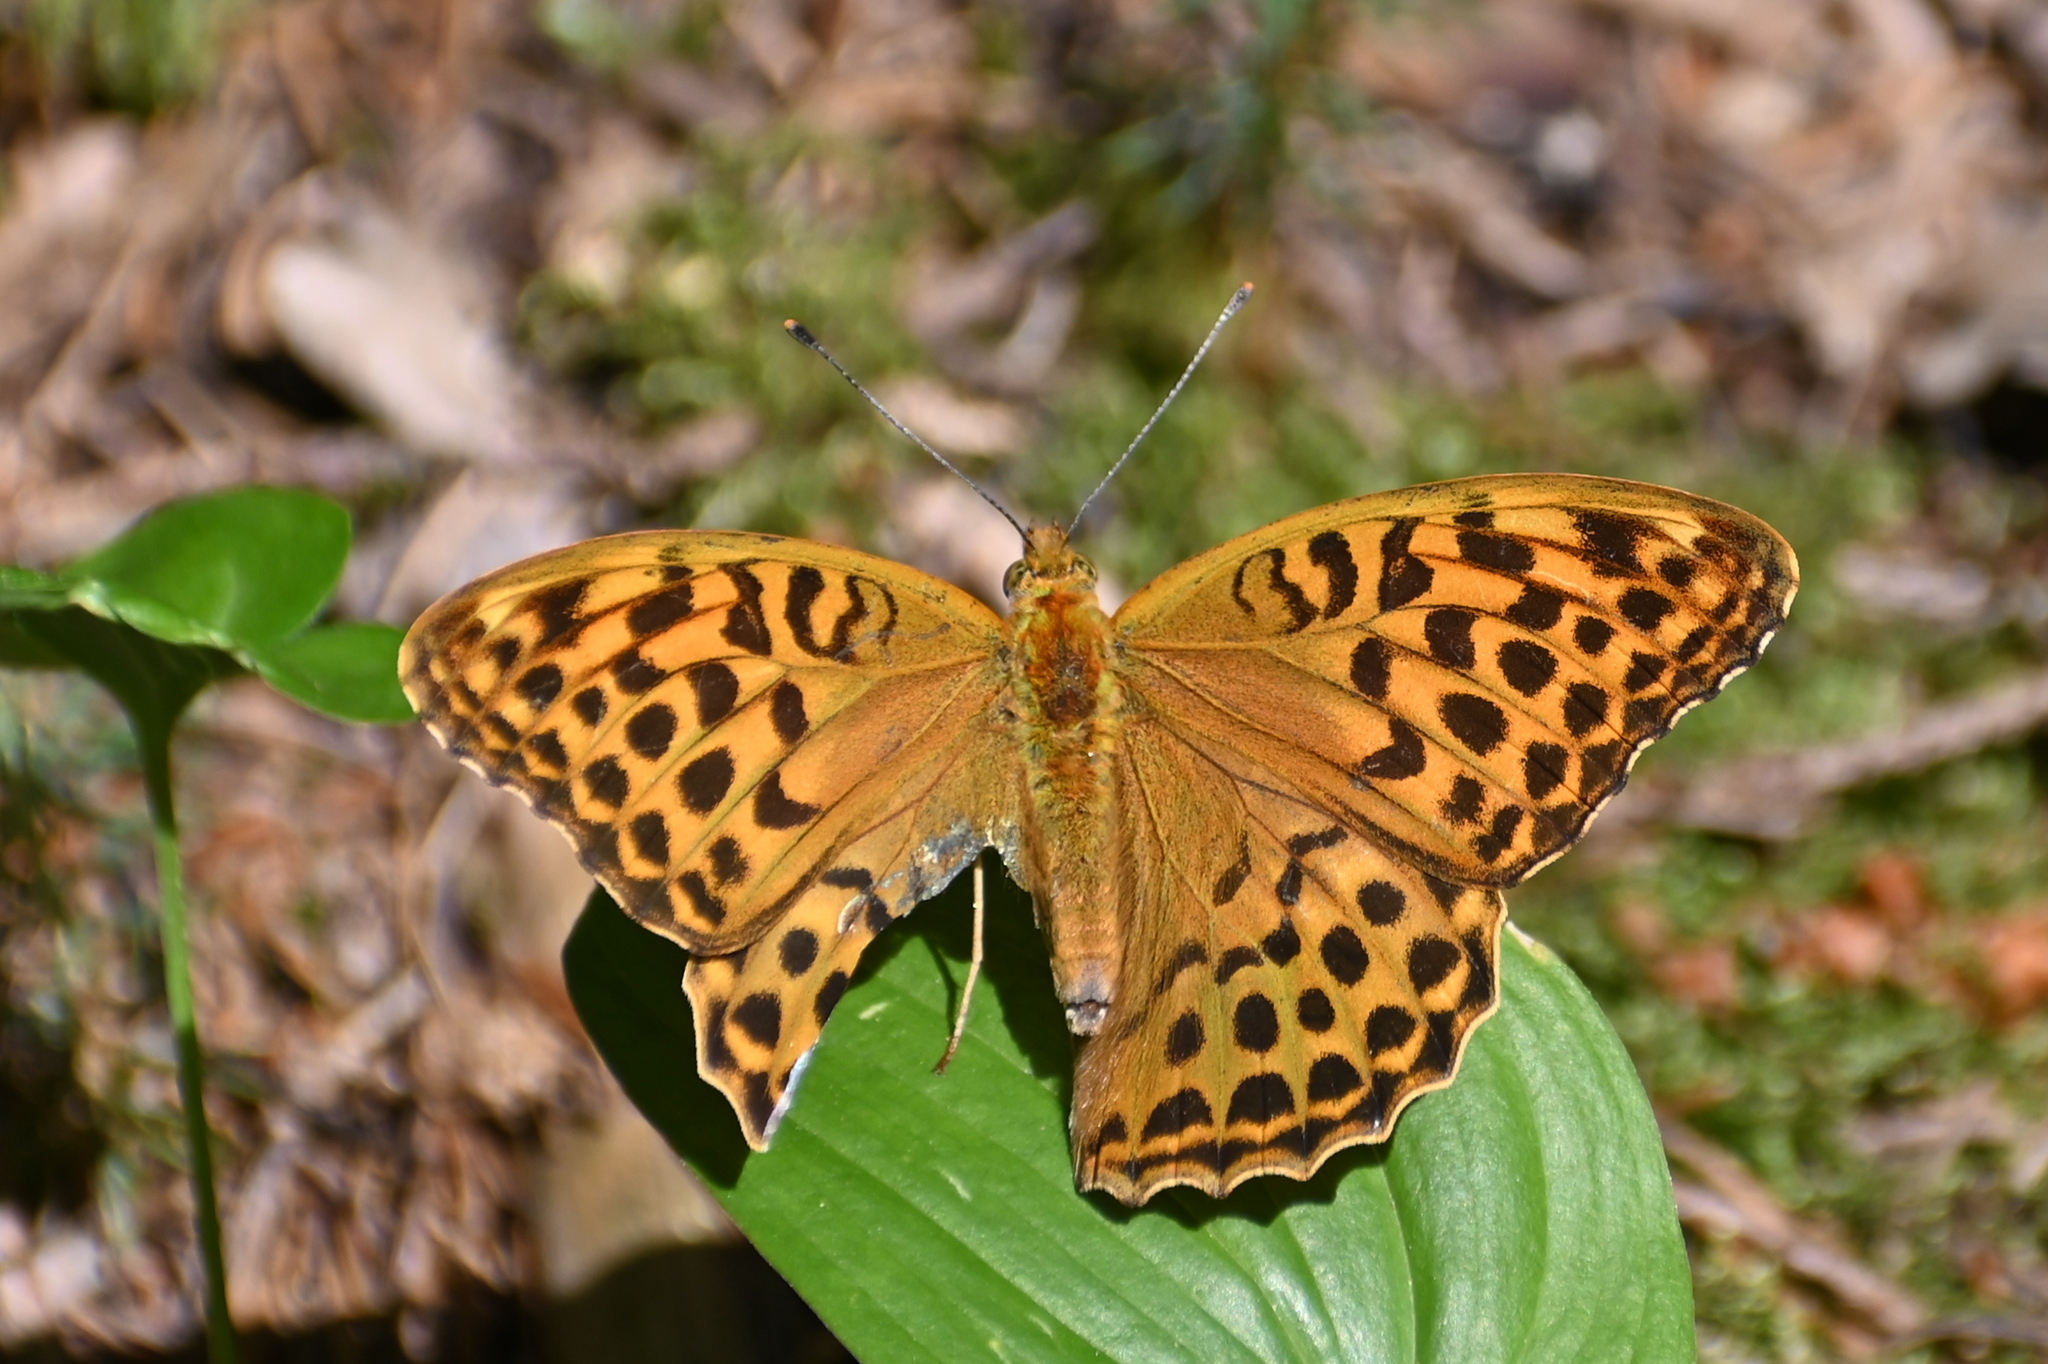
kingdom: Animalia
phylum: Arthropoda
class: Insecta
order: Lepidoptera
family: Nymphalidae
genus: Argynnis
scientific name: Argynnis paphia
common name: Silver-washed fritillary
